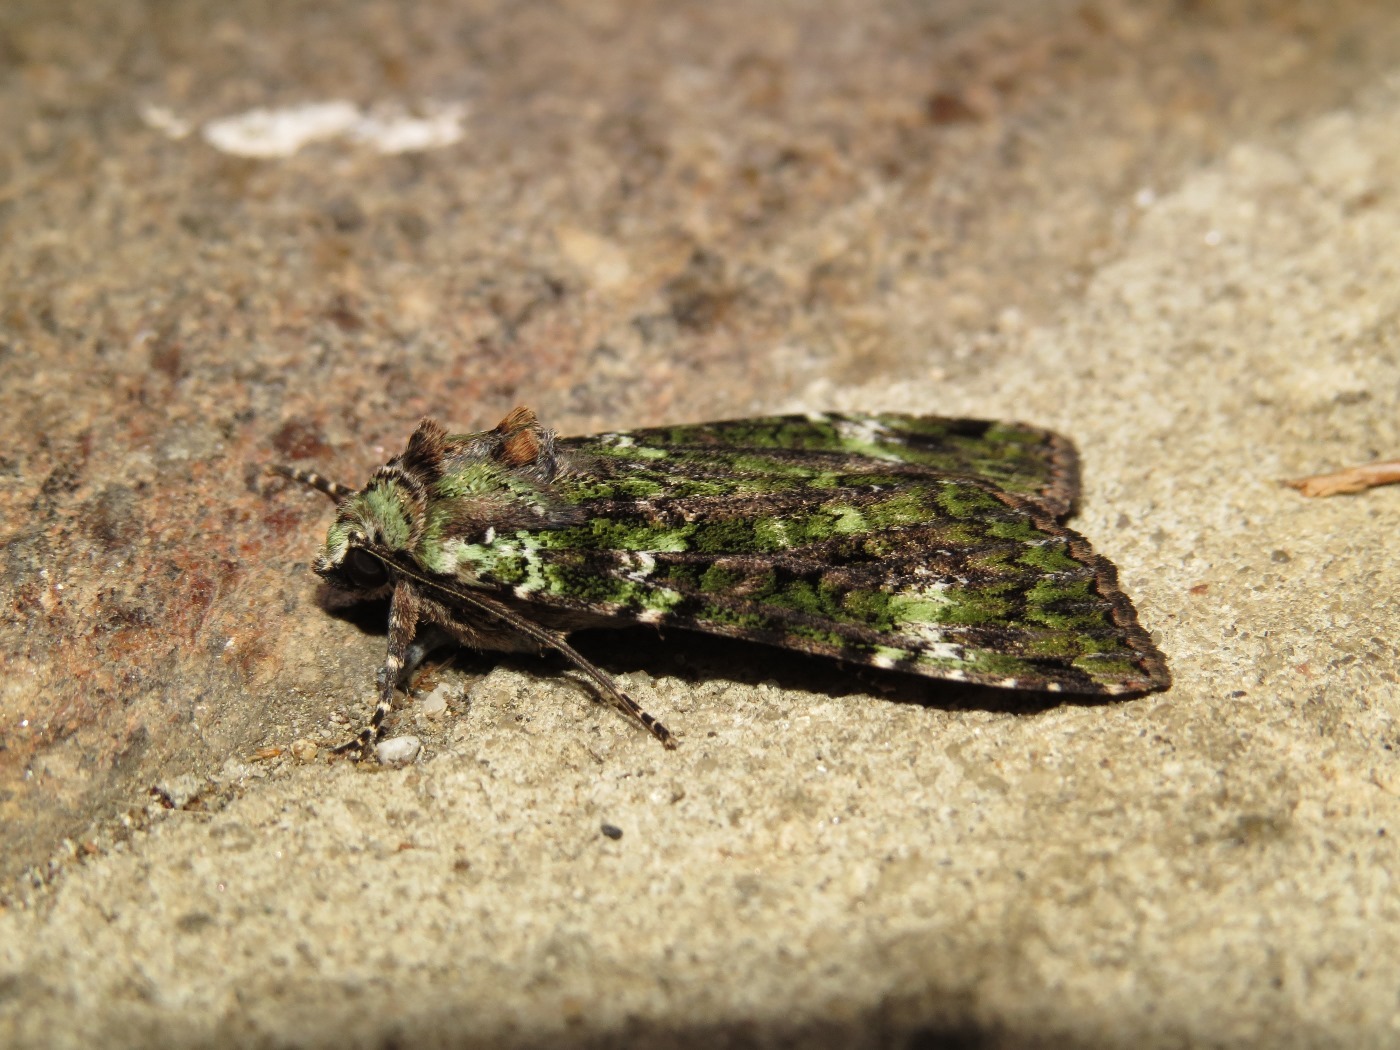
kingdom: Animalia
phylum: Arthropoda
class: Insecta
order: Lepidoptera
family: Noctuidae
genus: Anaplectoides
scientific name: Anaplectoides prasina
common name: Green arches
